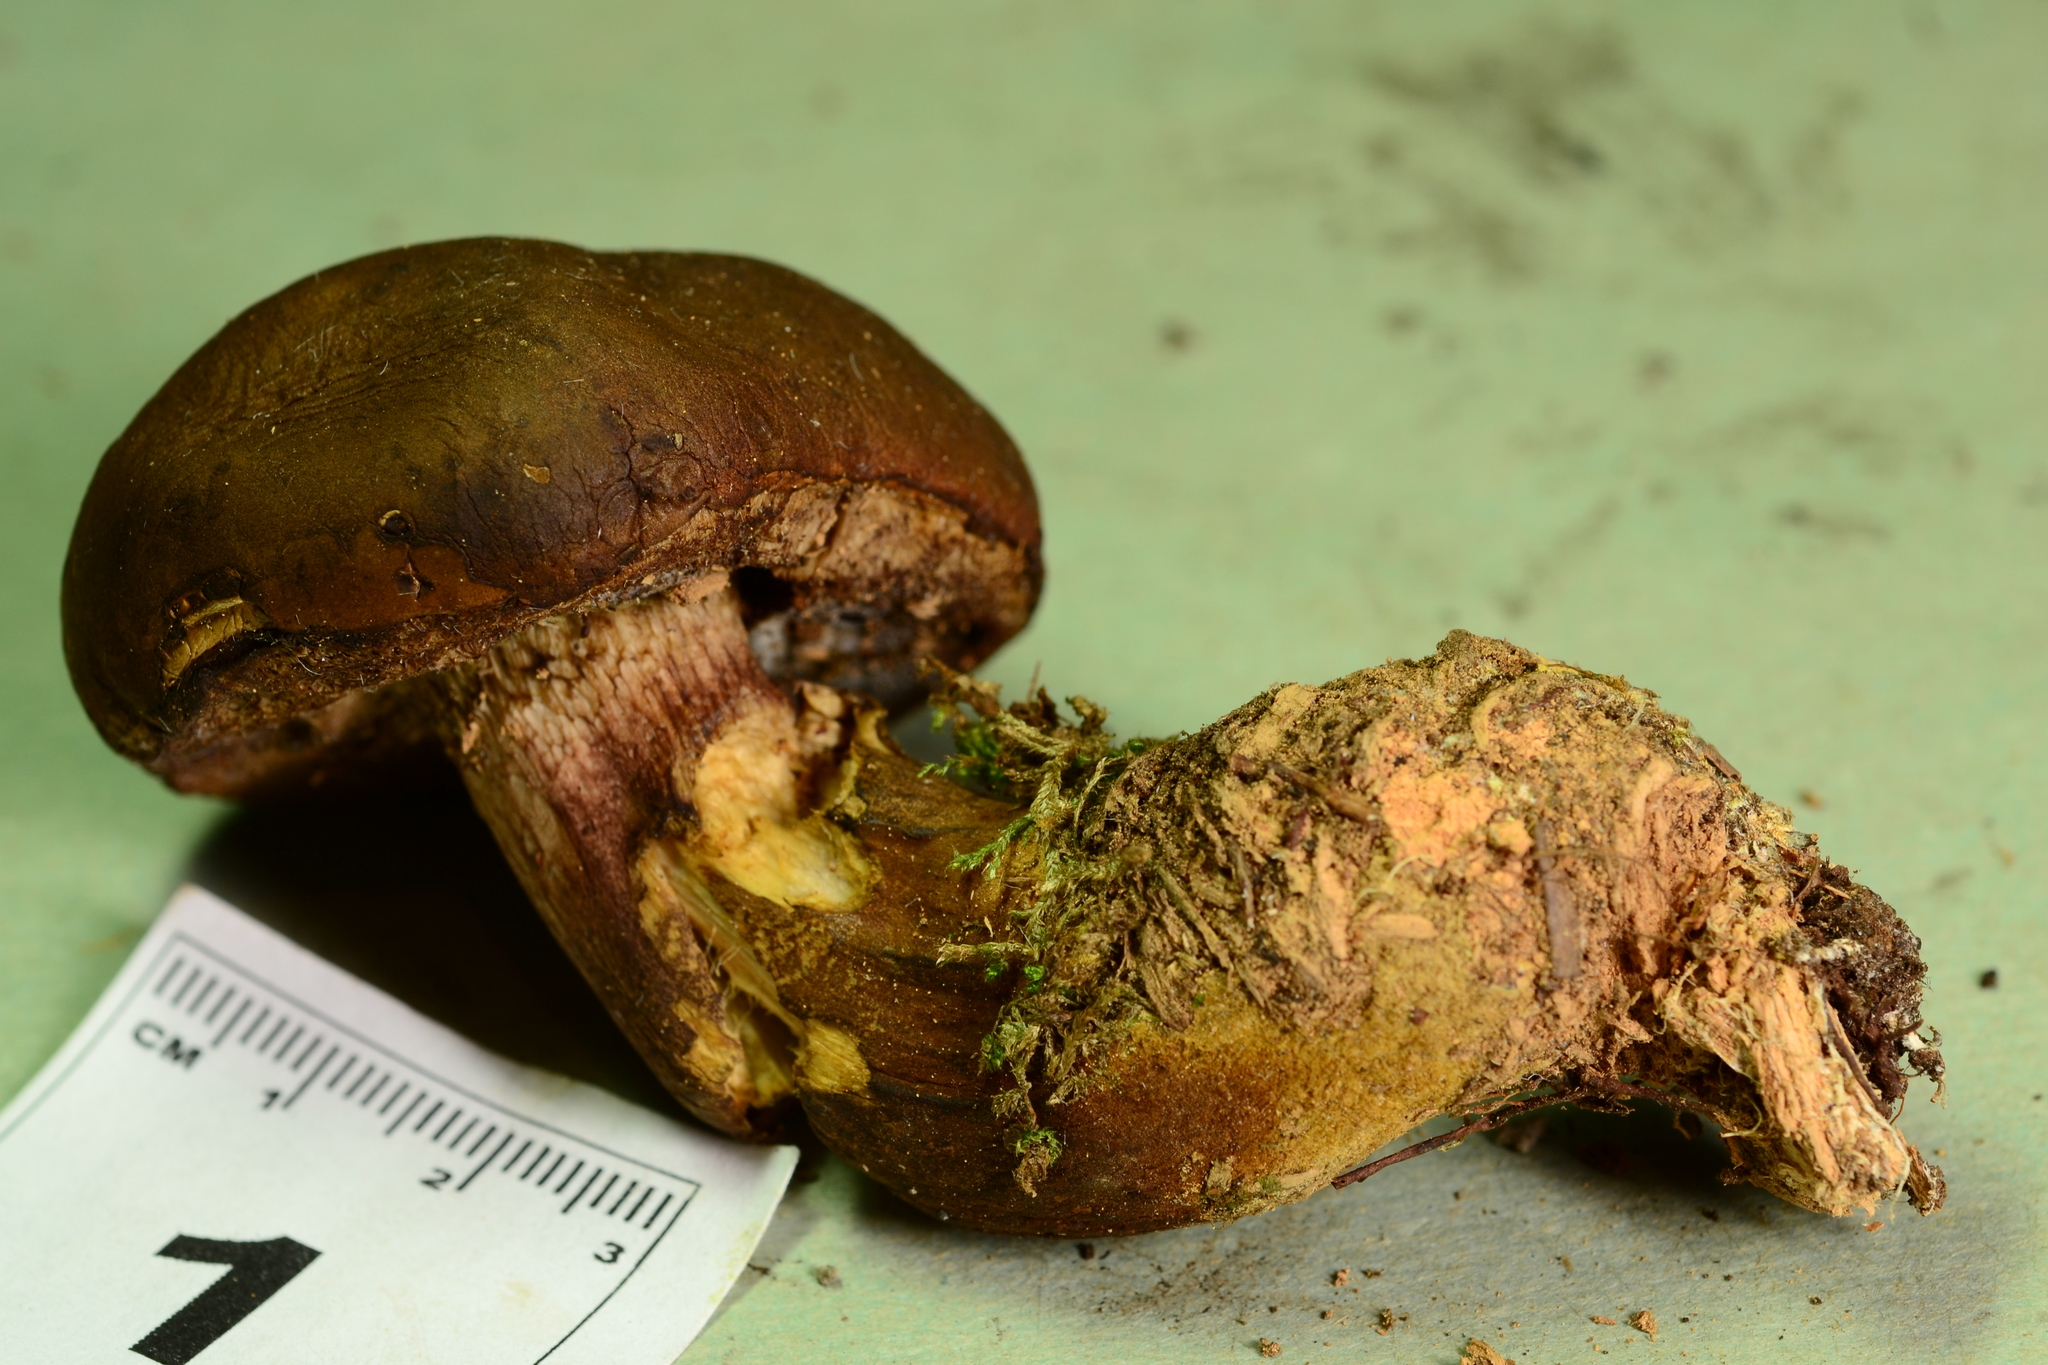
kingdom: Fungi
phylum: Basidiomycota
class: Agaricomycetes
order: Boletales
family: Boletaceae
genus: Imleria
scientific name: Imleria badia
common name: Bay bolete
